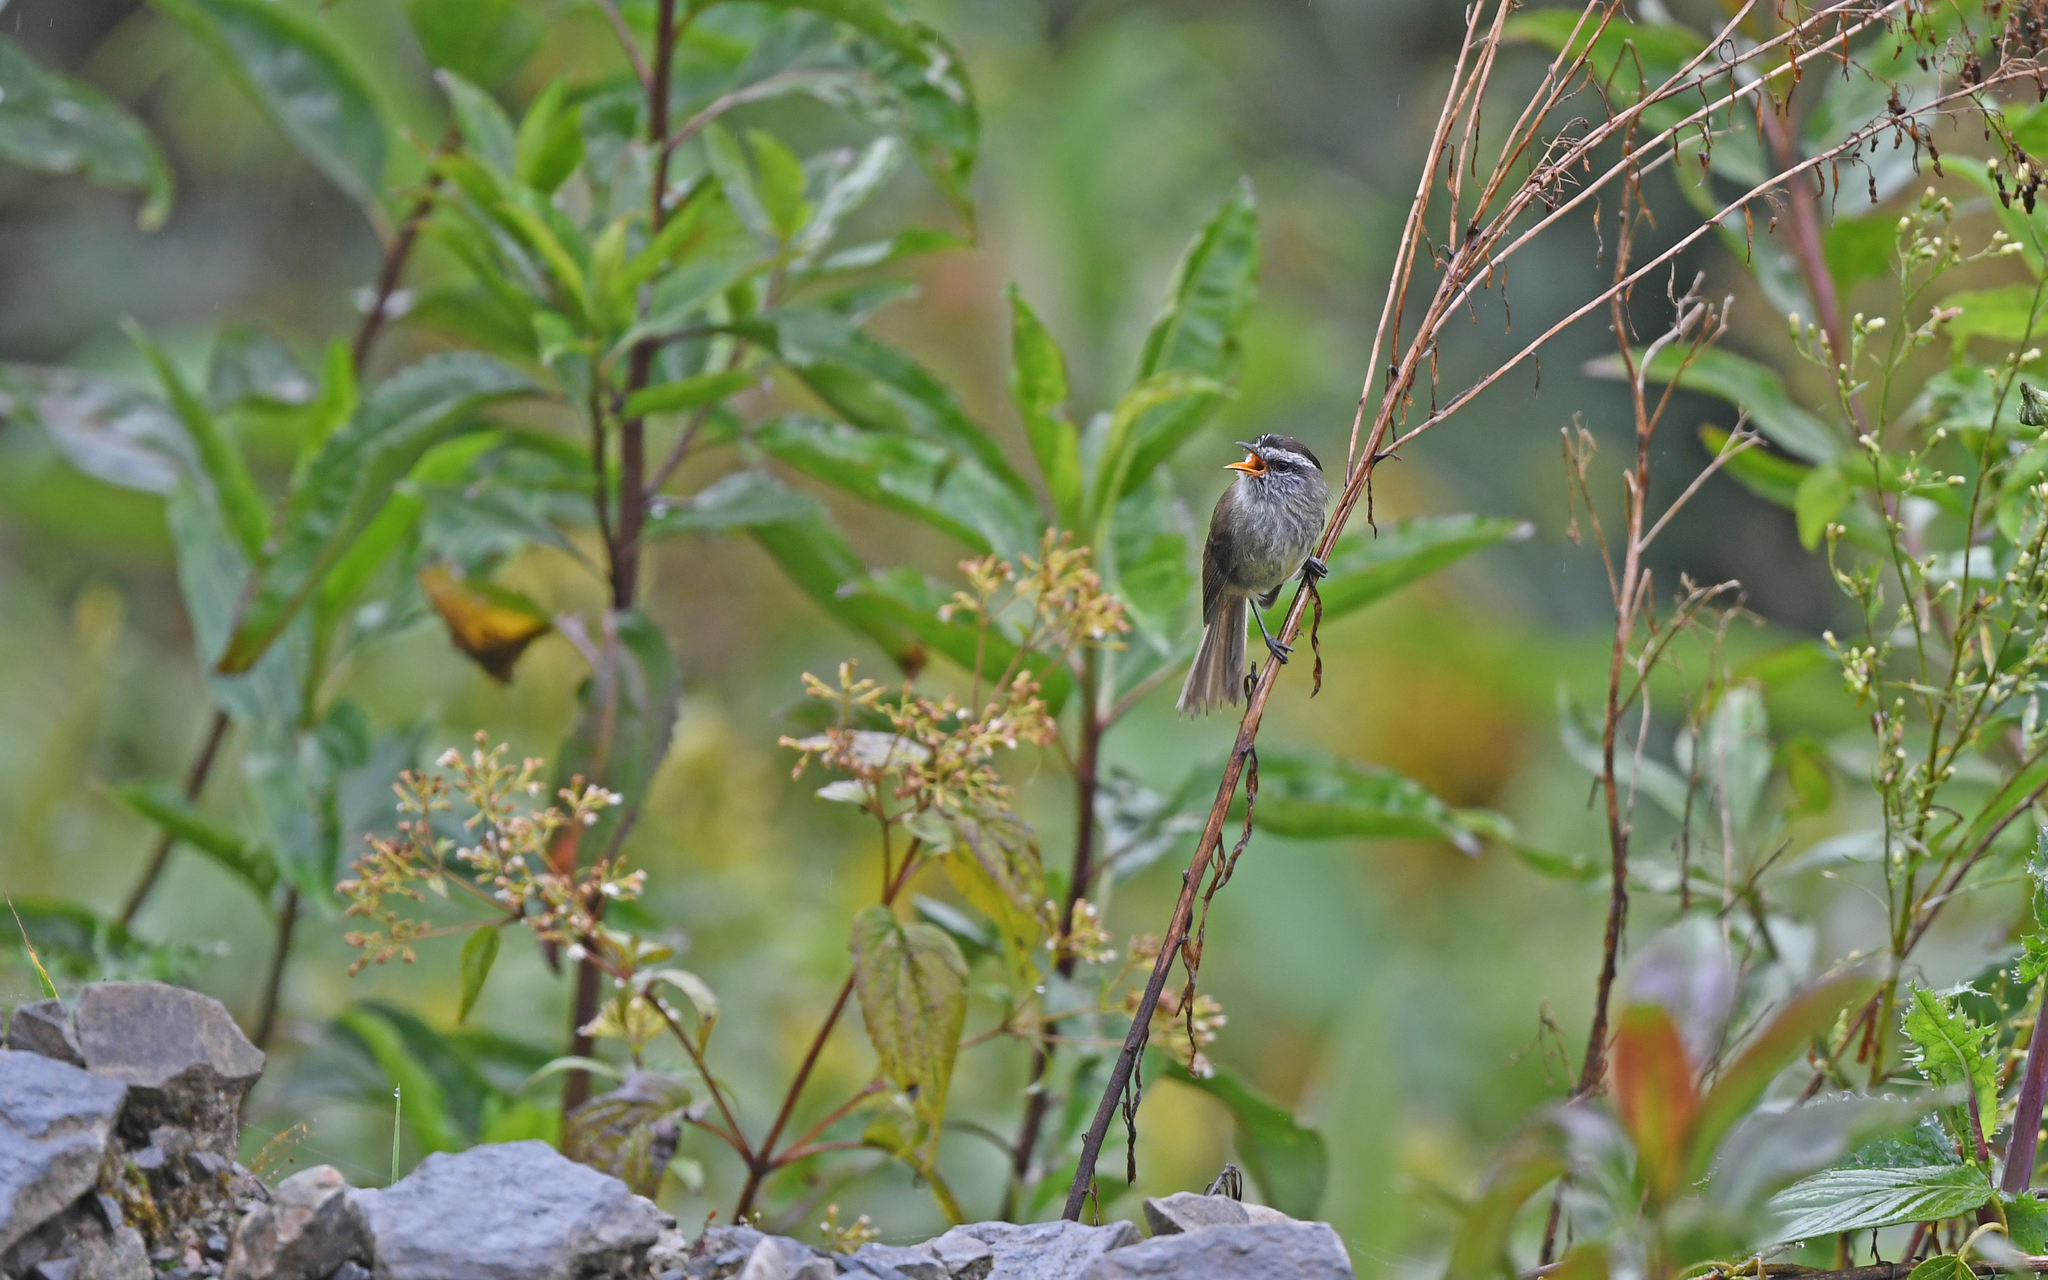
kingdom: Animalia
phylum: Chordata
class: Aves
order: Passeriformes
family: Tyrannidae
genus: Anairetes
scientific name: Anairetes agraphia
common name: Chapmans tit-tyrant
